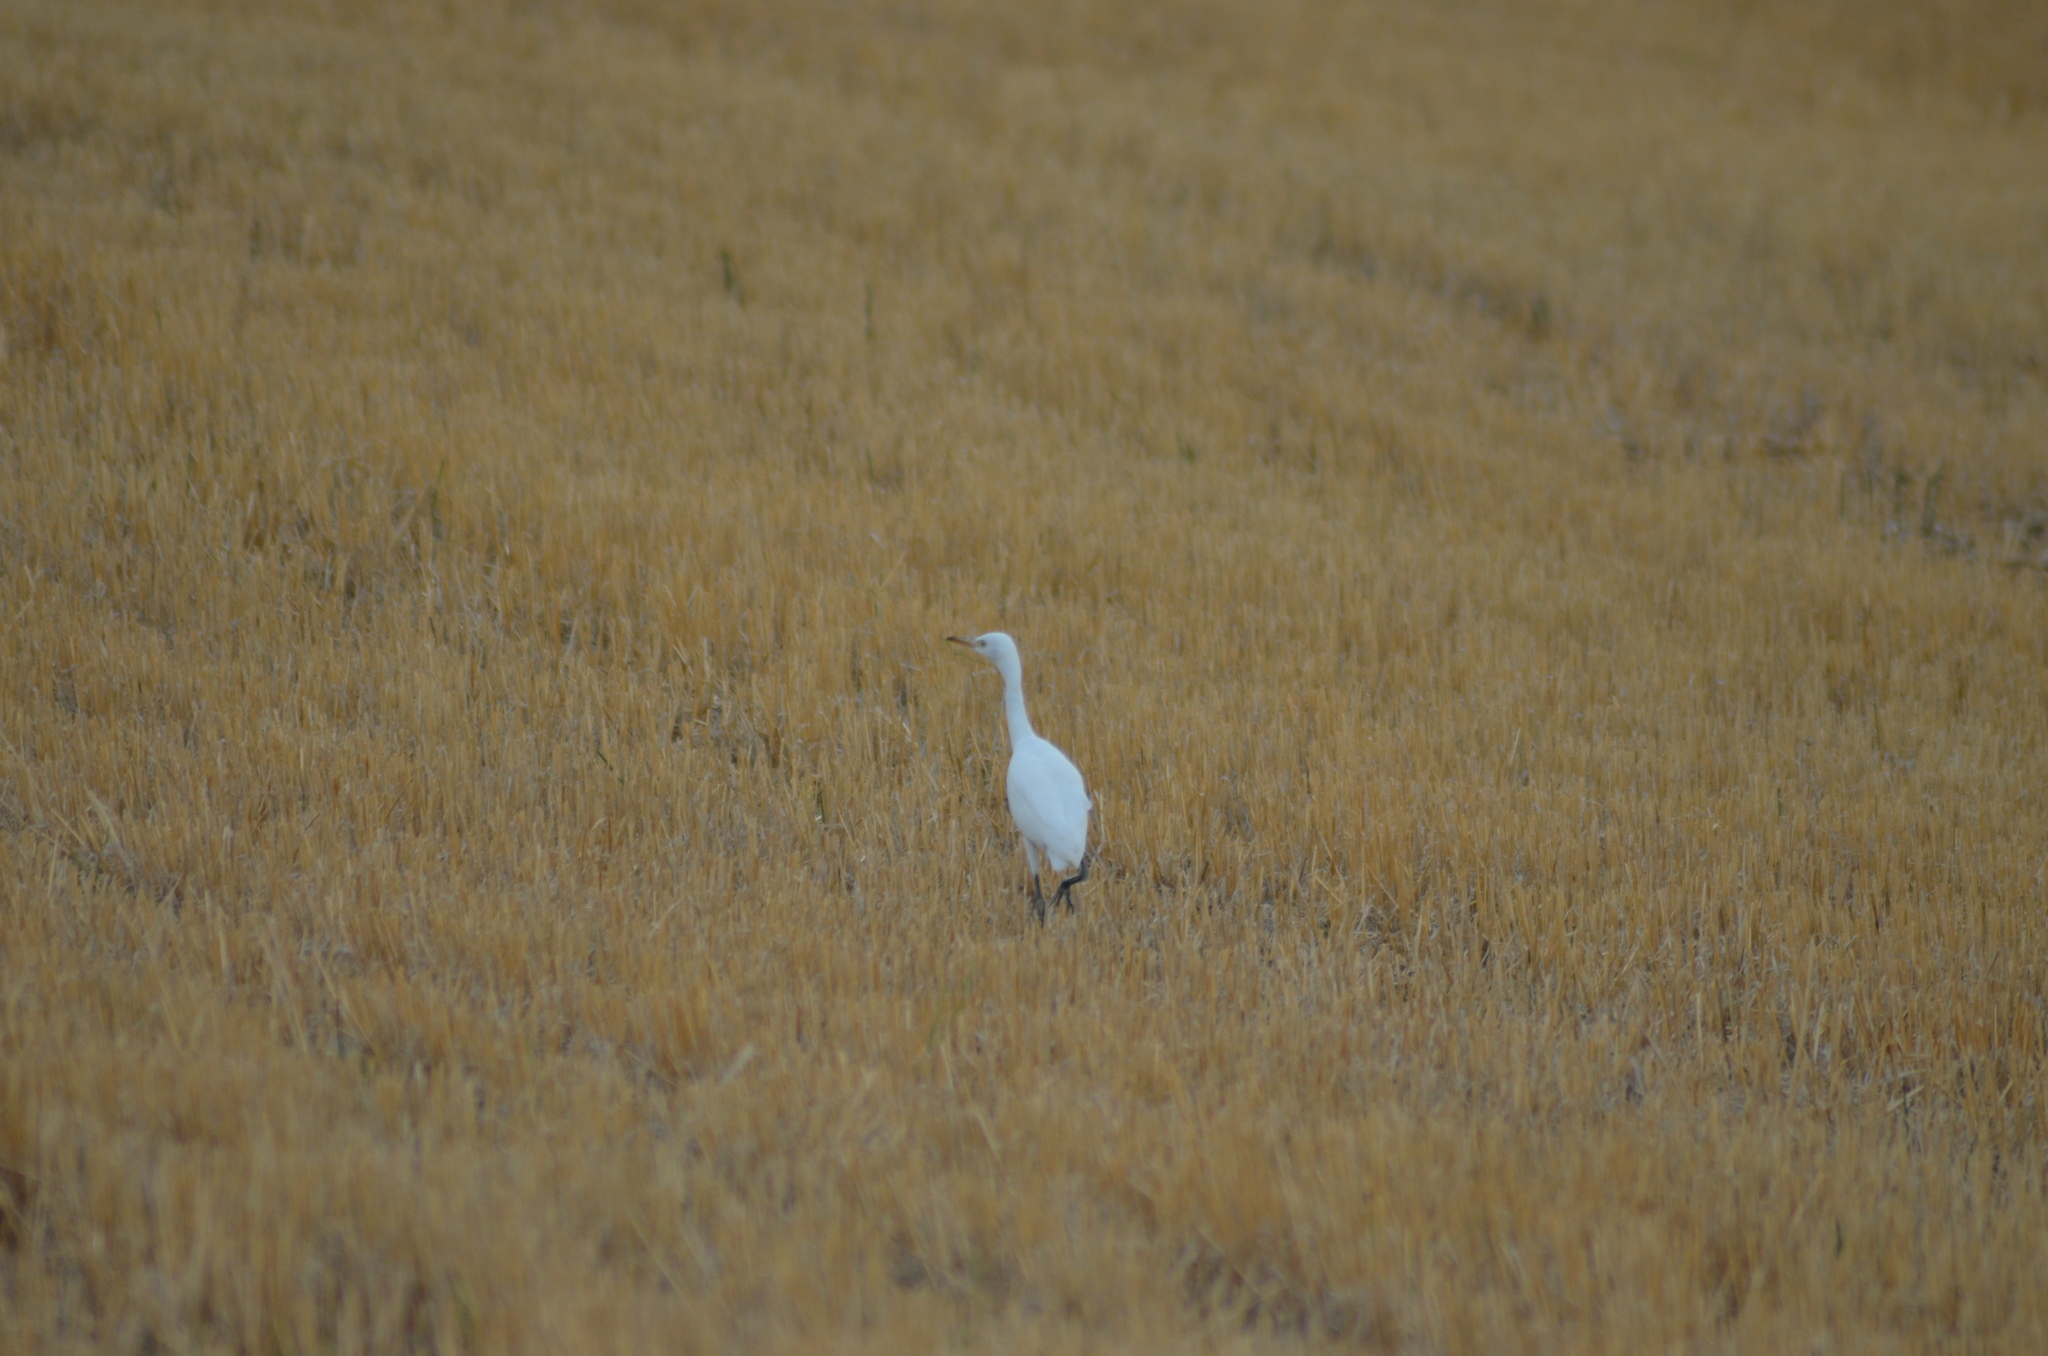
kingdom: Animalia
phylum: Chordata
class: Aves
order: Pelecaniformes
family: Ardeidae
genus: Bubulcus
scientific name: Bubulcus ibis
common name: Cattle egret
